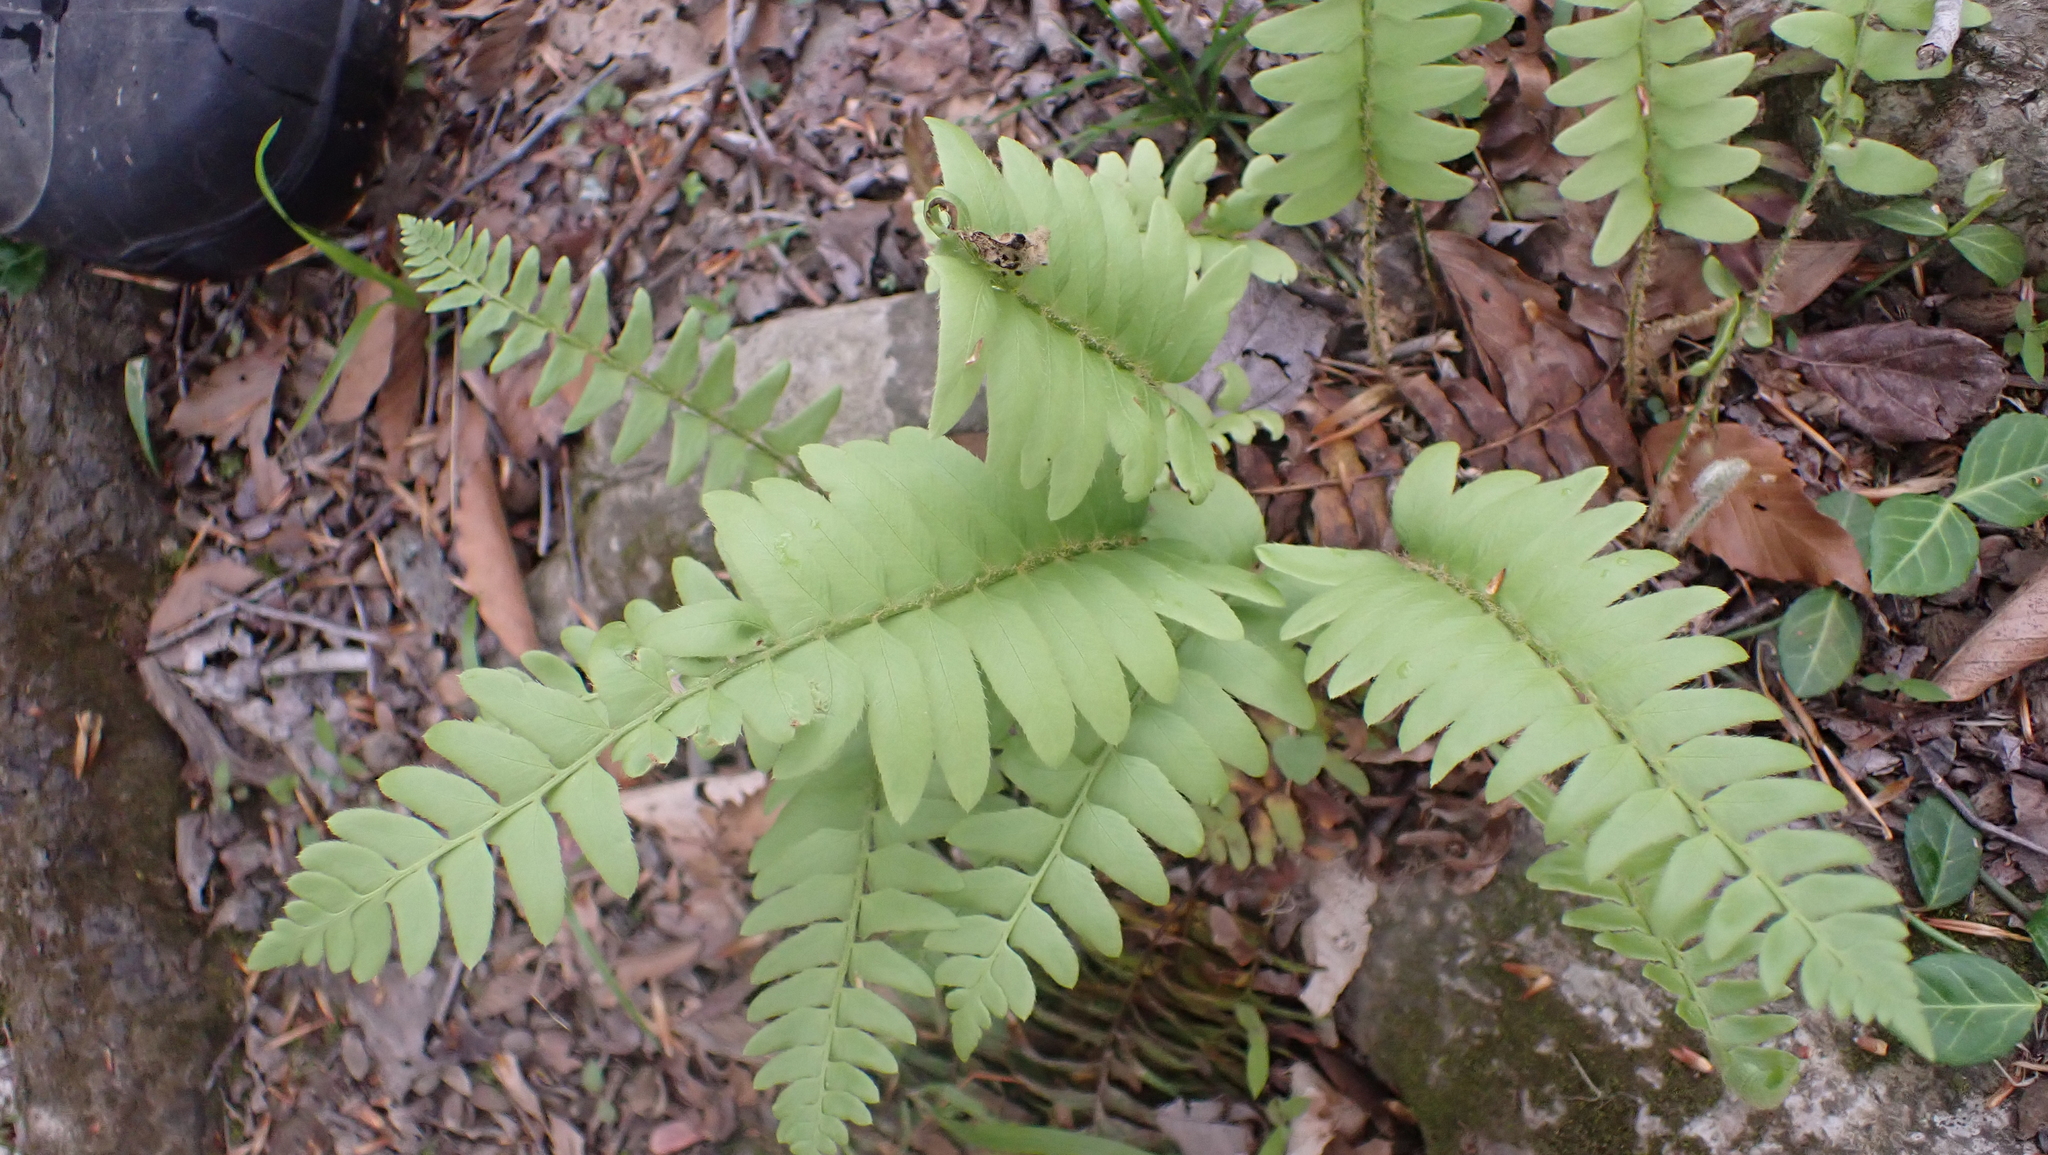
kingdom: Plantae
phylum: Tracheophyta
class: Polypodiopsida
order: Polypodiales
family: Dryopteridaceae
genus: Polystichum
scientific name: Polystichum acrostichoides
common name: Christmas fern
